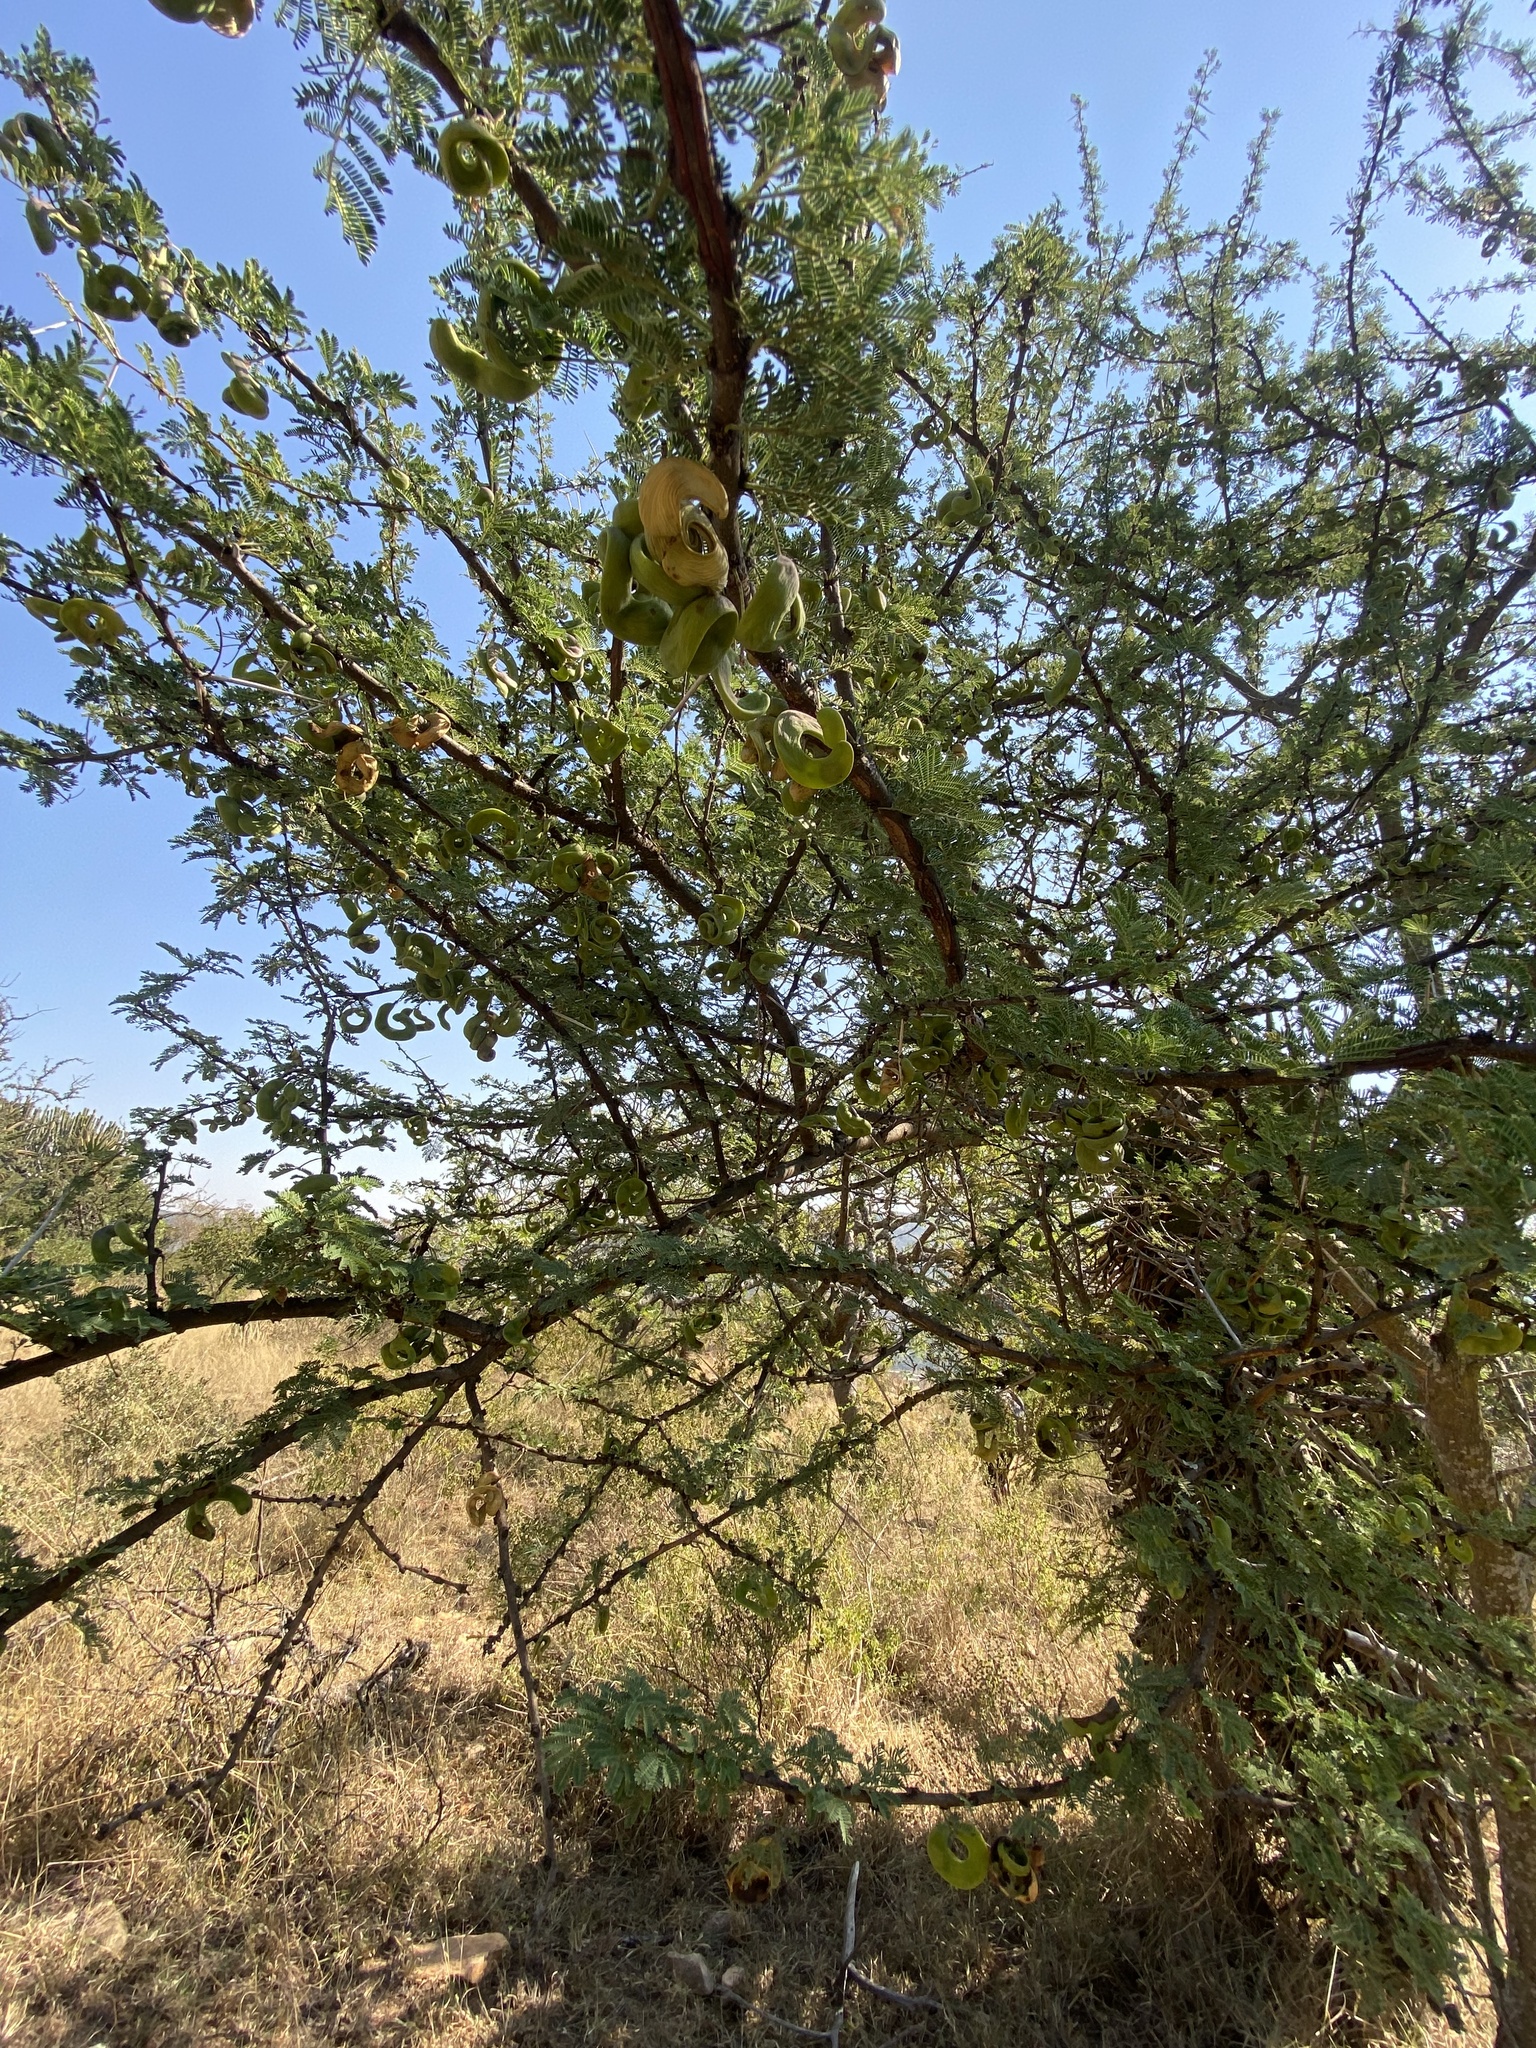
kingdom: Plantae
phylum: Tracheophyta
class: Magnoliopsida
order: Fabales
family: Fabaceae
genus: Vachellia
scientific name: Vachellia tortilis
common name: Umbrella thorn acacia
